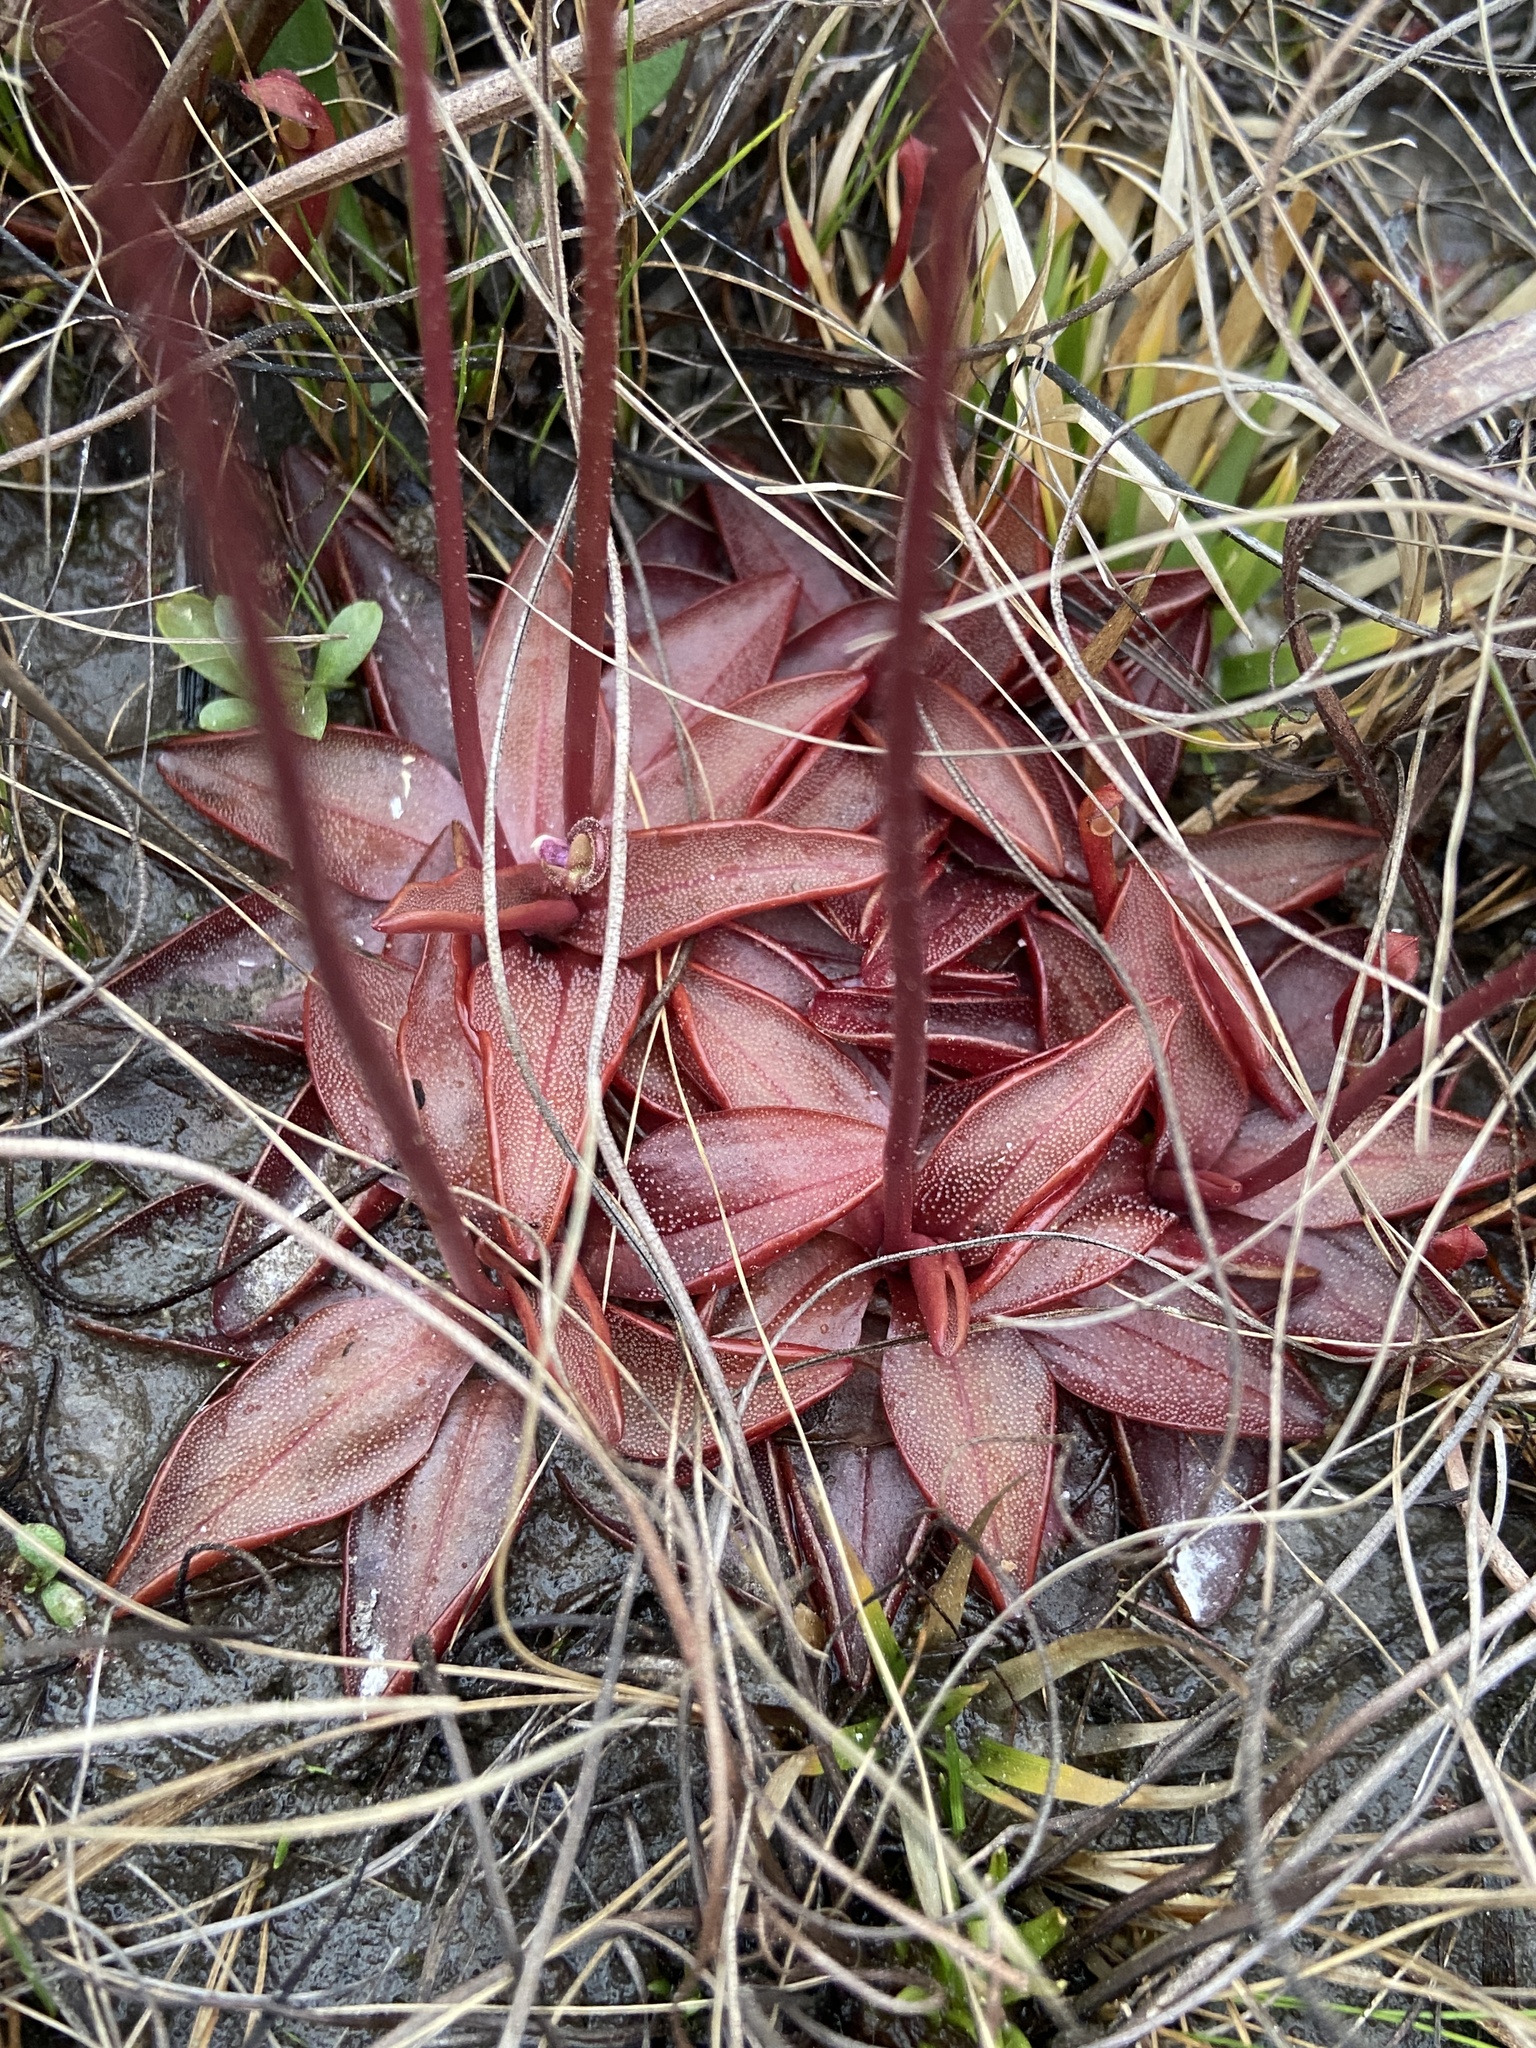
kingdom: Plantae
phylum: Tracheophyta
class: Magnoliopsida
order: Lamiales
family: Lentibulariaceae
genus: Pinguicula
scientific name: Pinguicula planifolia
